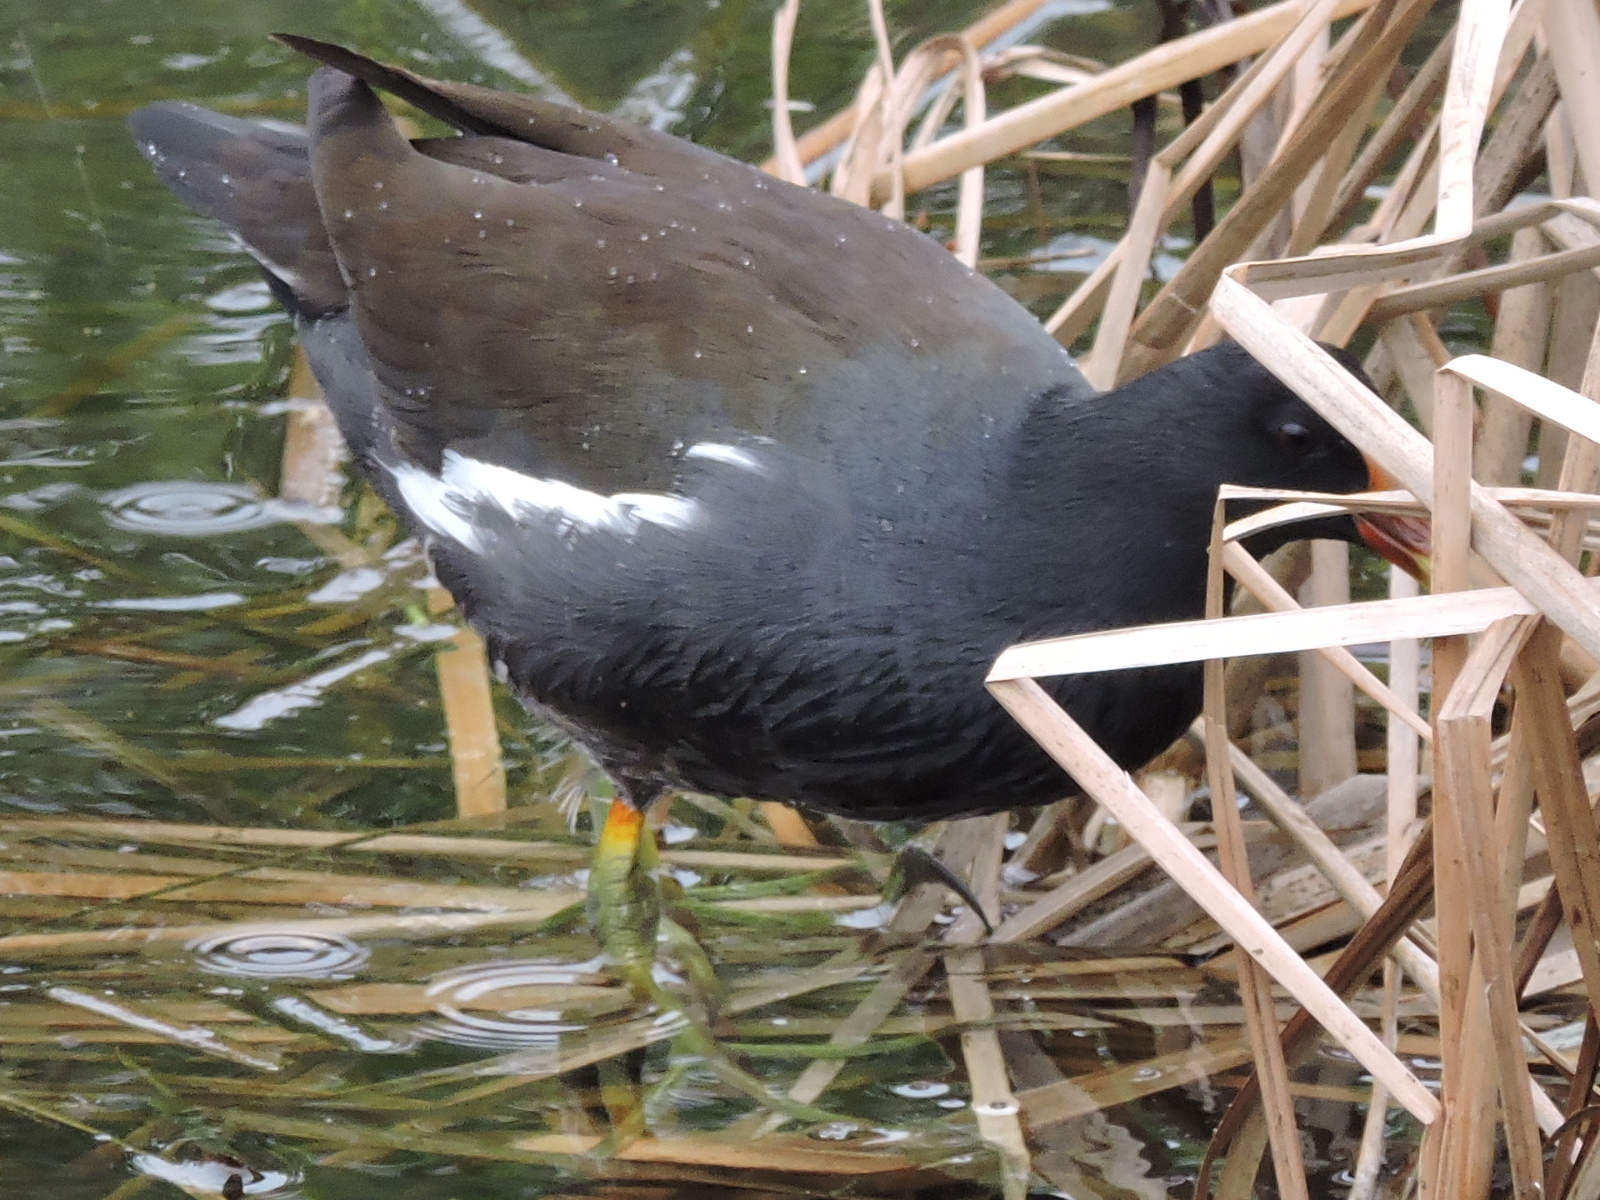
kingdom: Animalia
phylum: Chordata
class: Aves
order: Gruiformes
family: Rallidae
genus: Gallinula
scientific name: Gallinula chloropus
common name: Common moorhen
